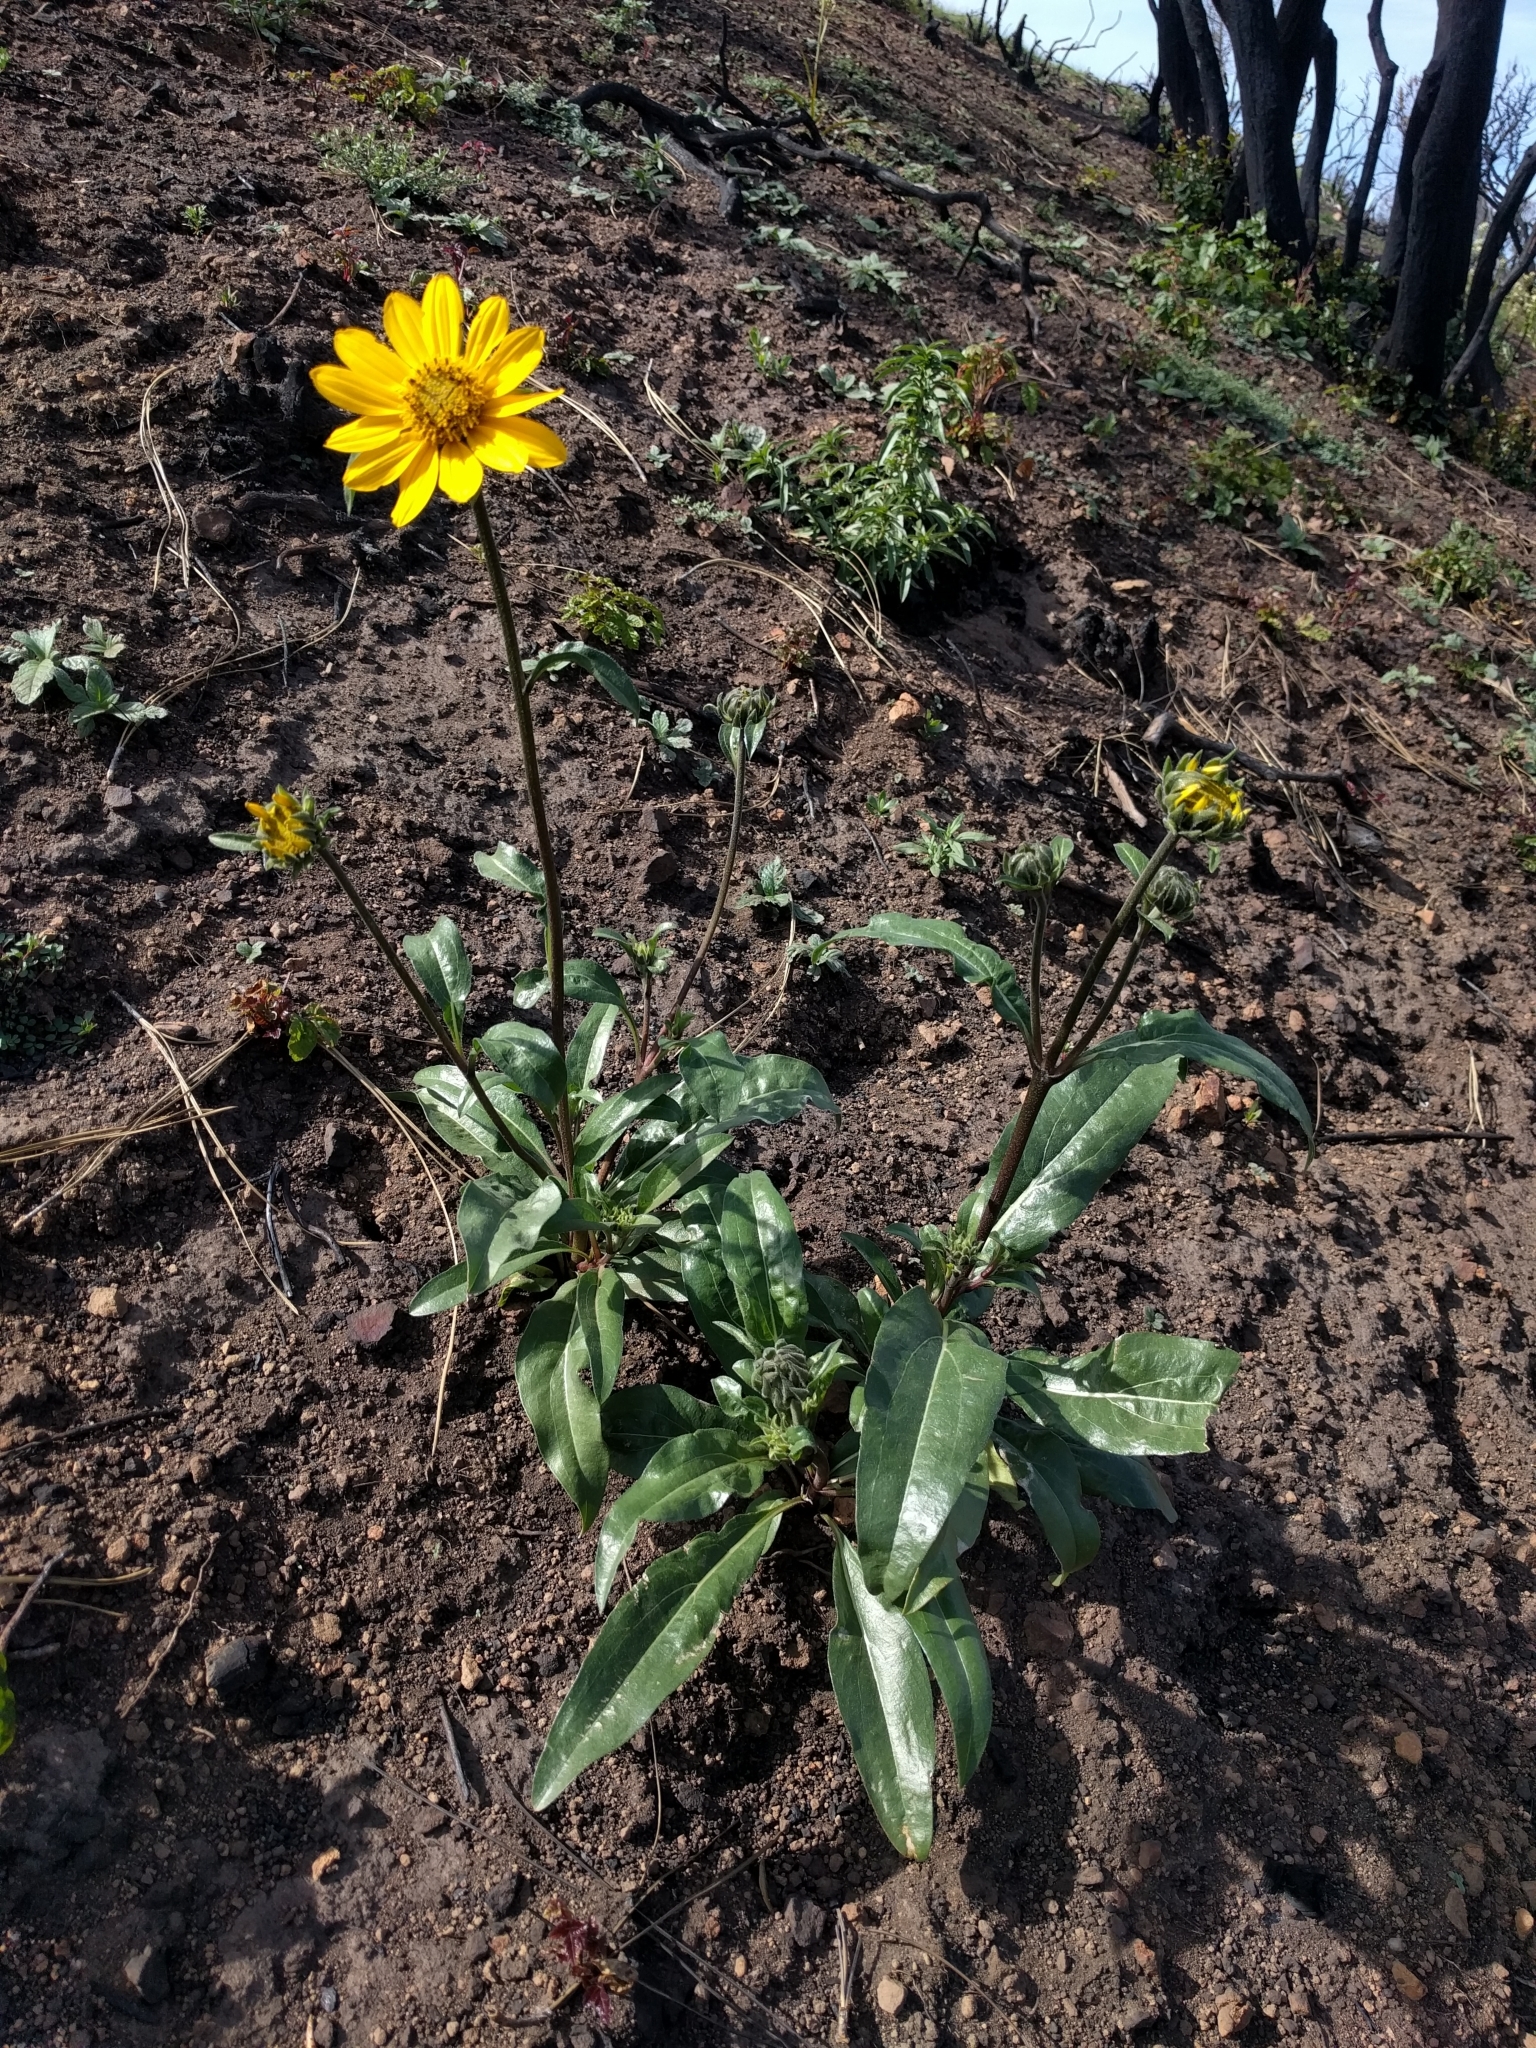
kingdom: Plantae
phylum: Tracheophyta
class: Magnoliopsida
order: Asterales
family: Asteraceae
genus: Helianthella
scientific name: Helianthella californica
